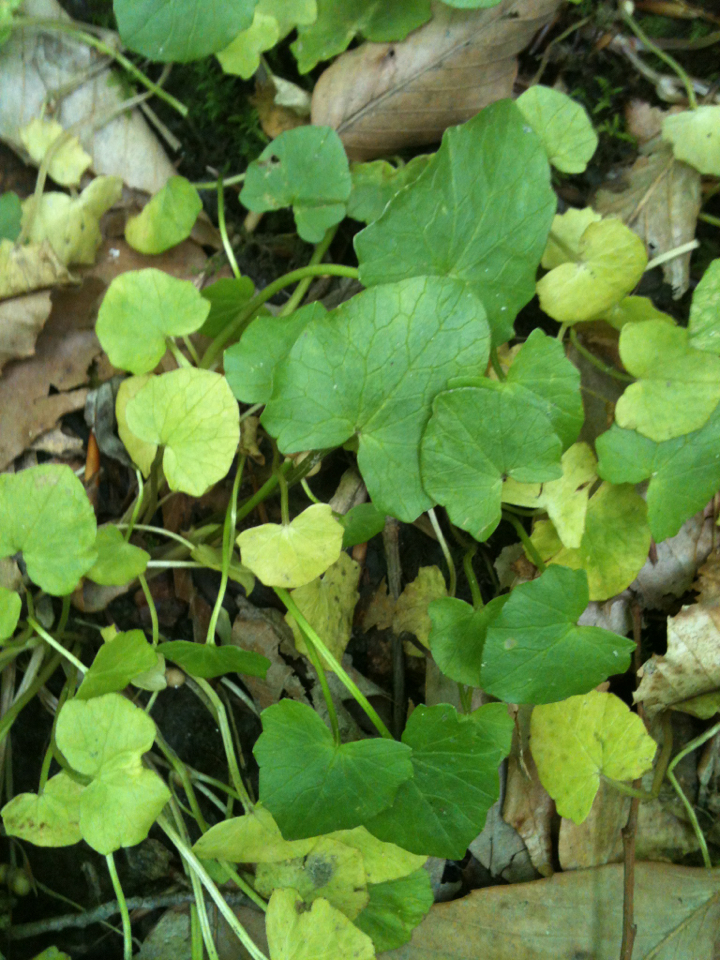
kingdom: Plantae
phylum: Tracheophyta
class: Magnoliopsida
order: Ranunculales
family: Ranunculaceae
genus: Ficaria
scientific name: Ficaria verna
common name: Lesser celandine
